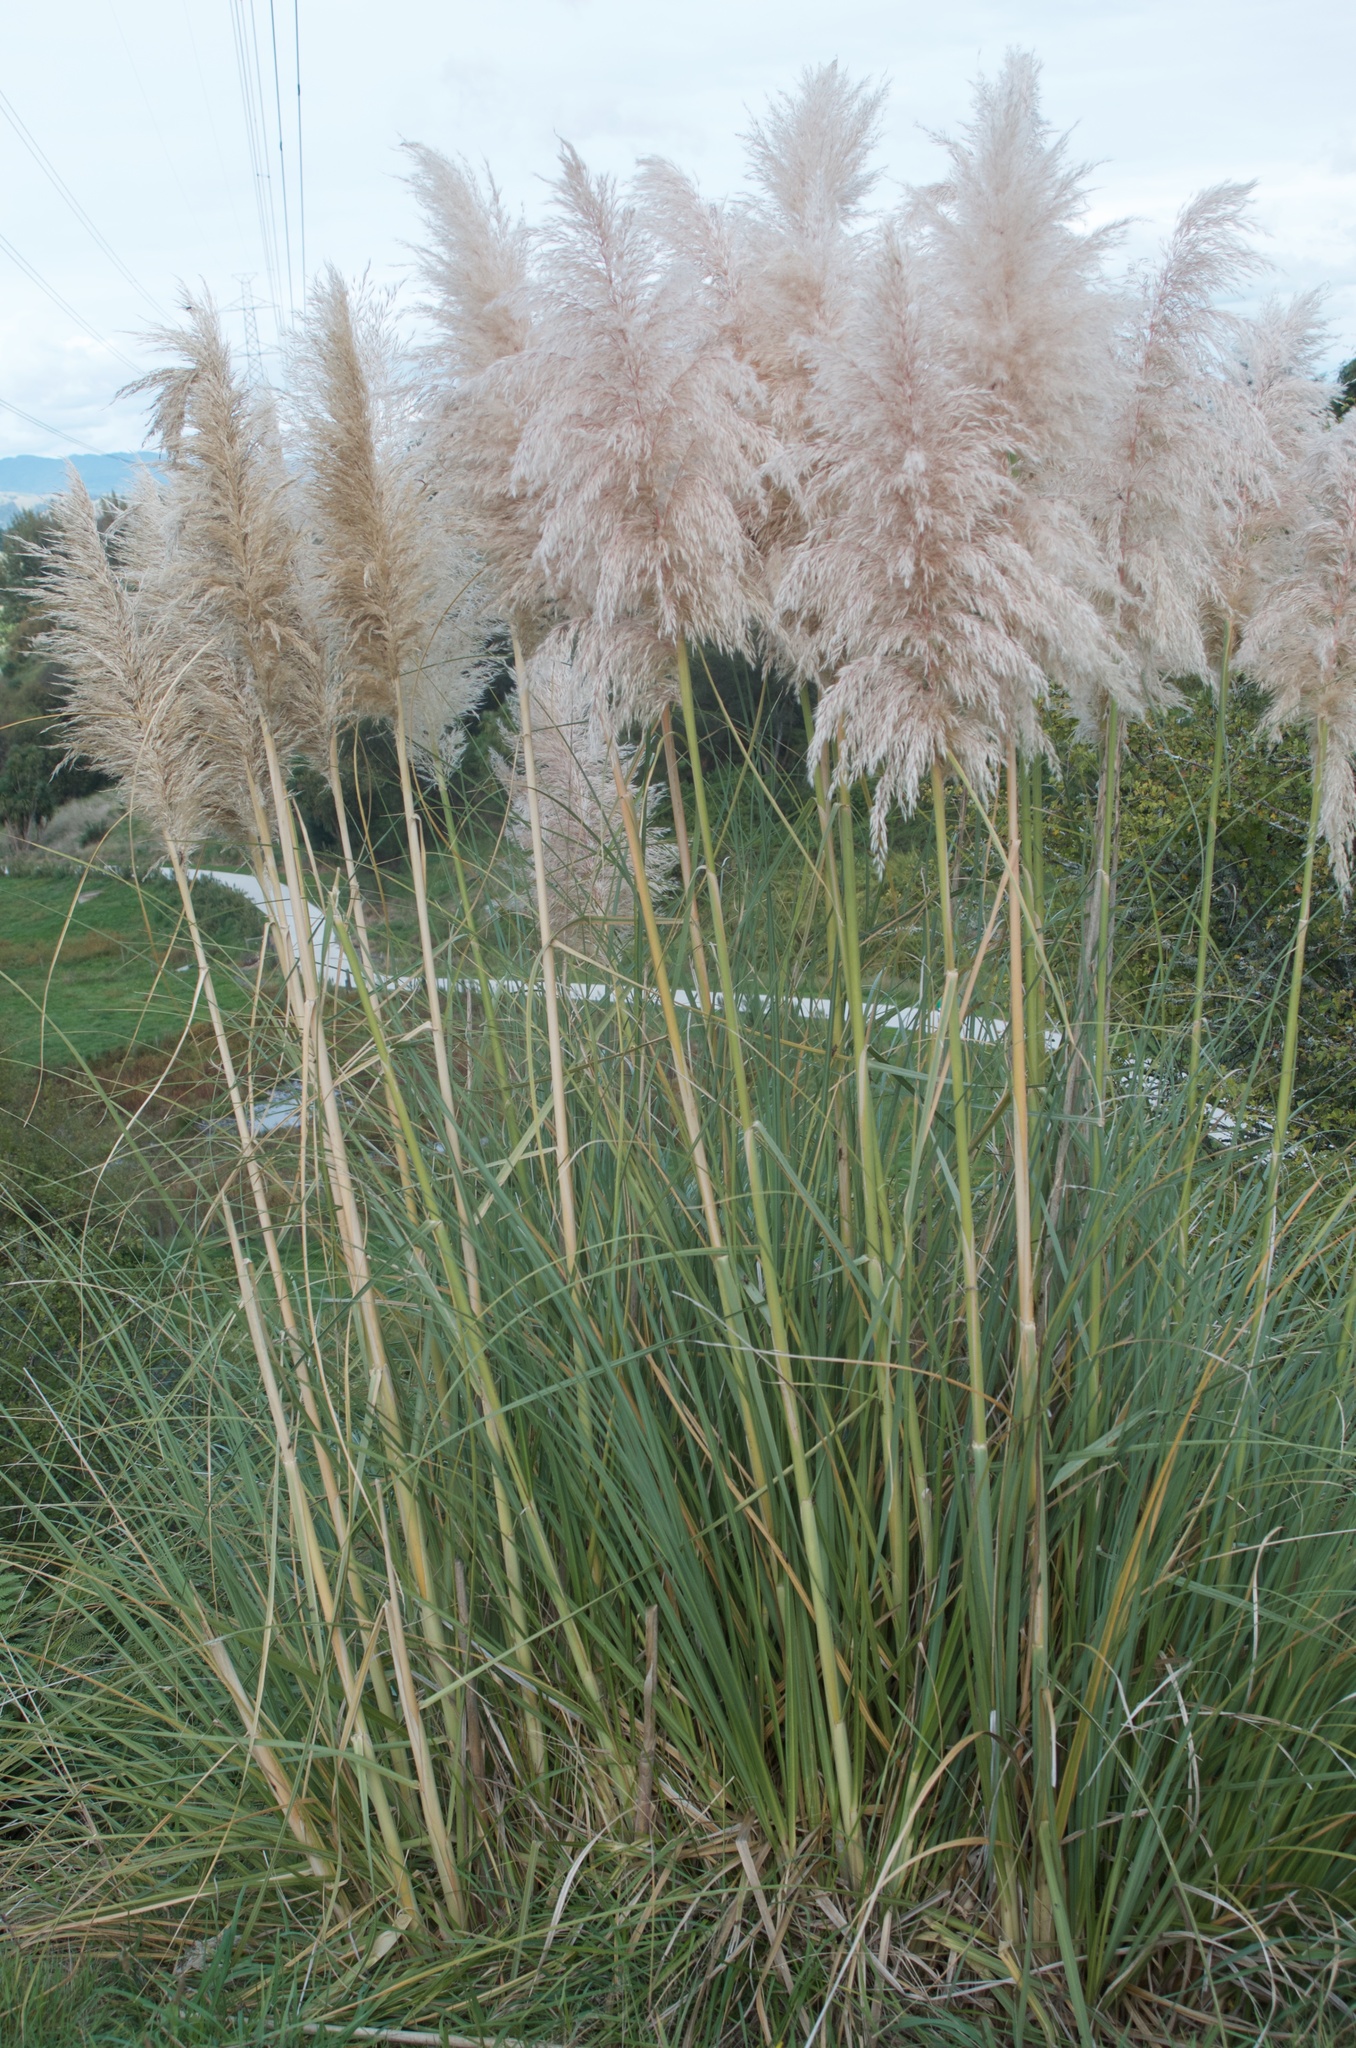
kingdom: Plantae
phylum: Tracheophyta
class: Liliopsida
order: Poales
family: Poaceae
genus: Cortaderia
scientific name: Cortaderia selloana
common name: Uruguayan pampas grass
